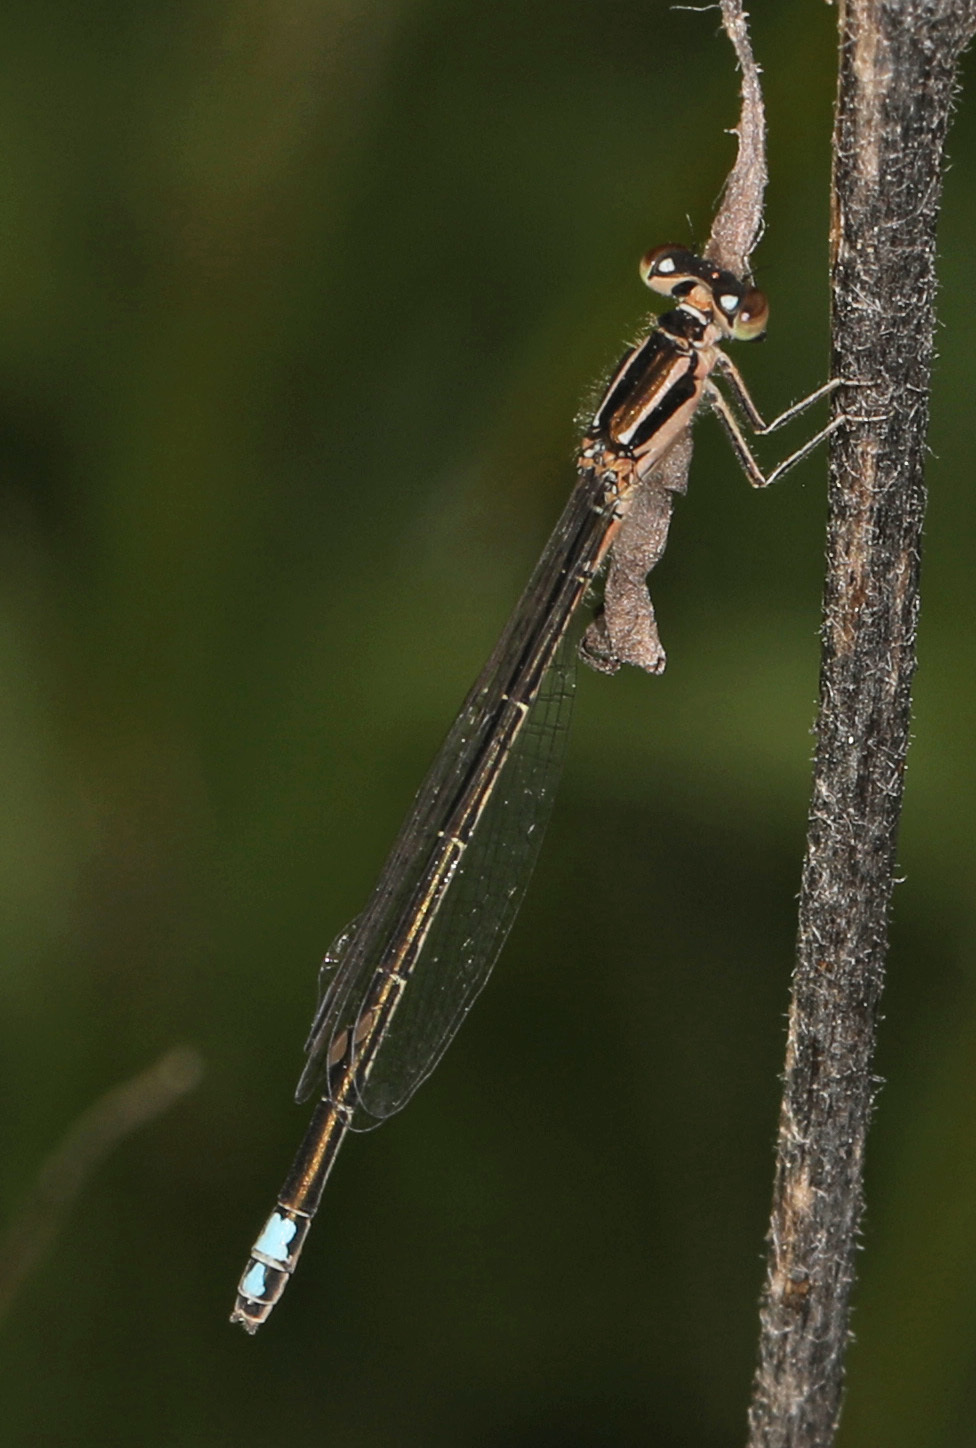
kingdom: Animalia
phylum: Arthropoda
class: Insecta
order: Odonata
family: Coenagrionidae
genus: Ischnura
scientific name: Ischnura verticalis
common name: Eastern forktail
